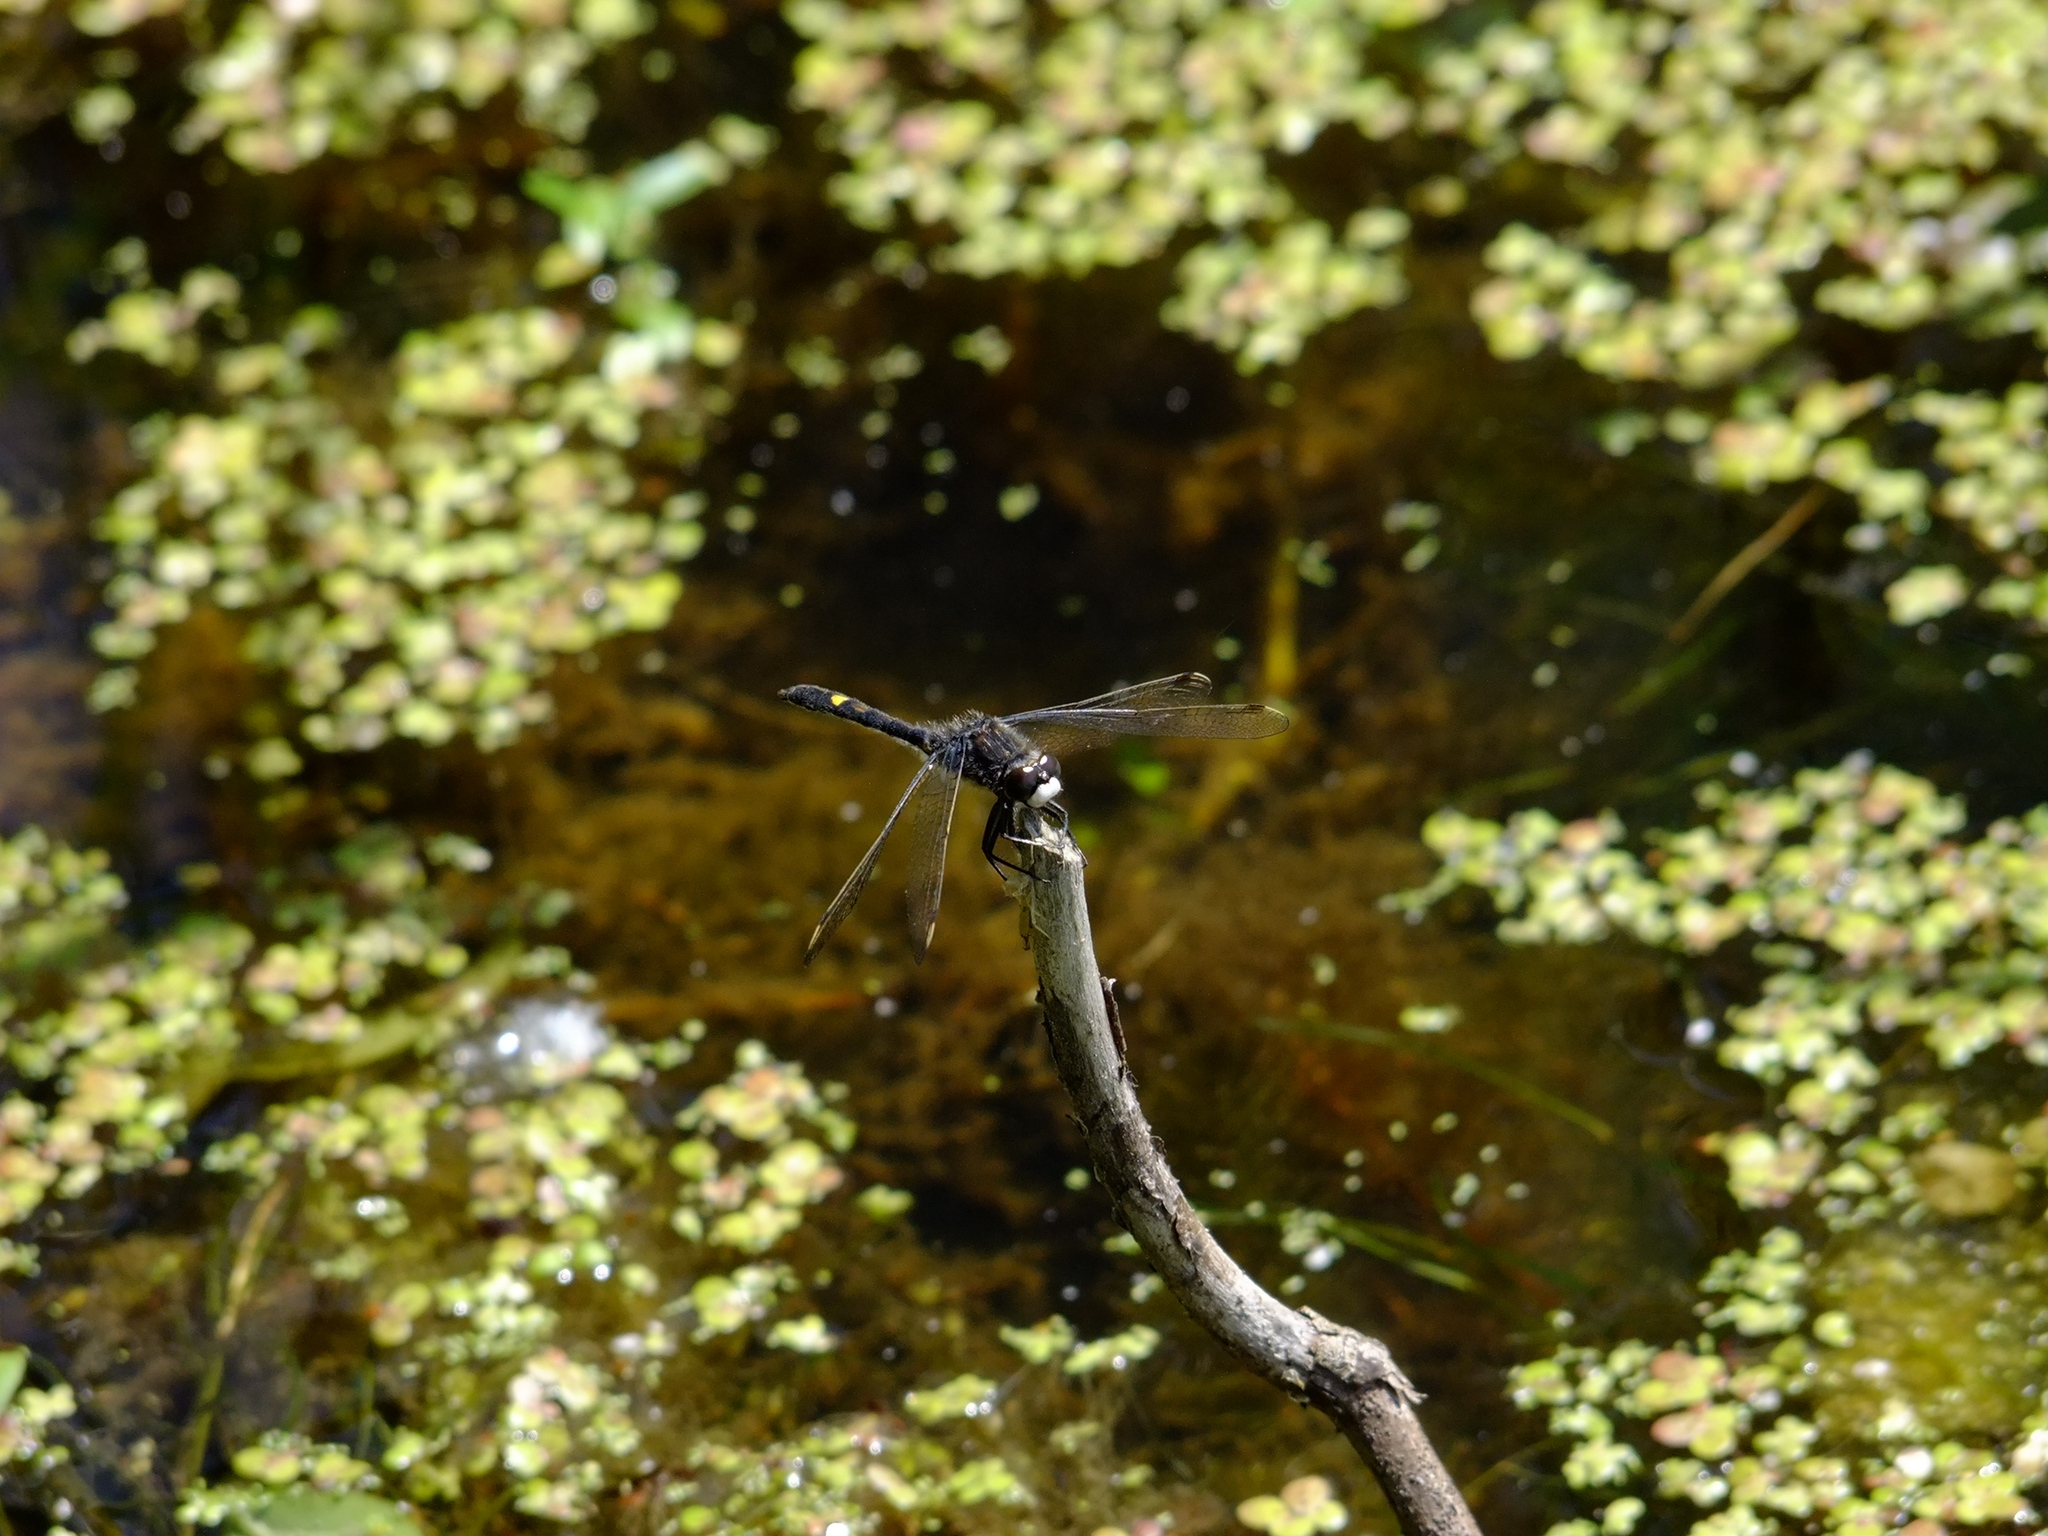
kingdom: Animalia
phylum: Arthropoda
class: Insecta
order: Odonata
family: Libellulidae
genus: Leucorrhinia
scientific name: Leucorrhinia intacta
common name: Dot-tailed whiteface
